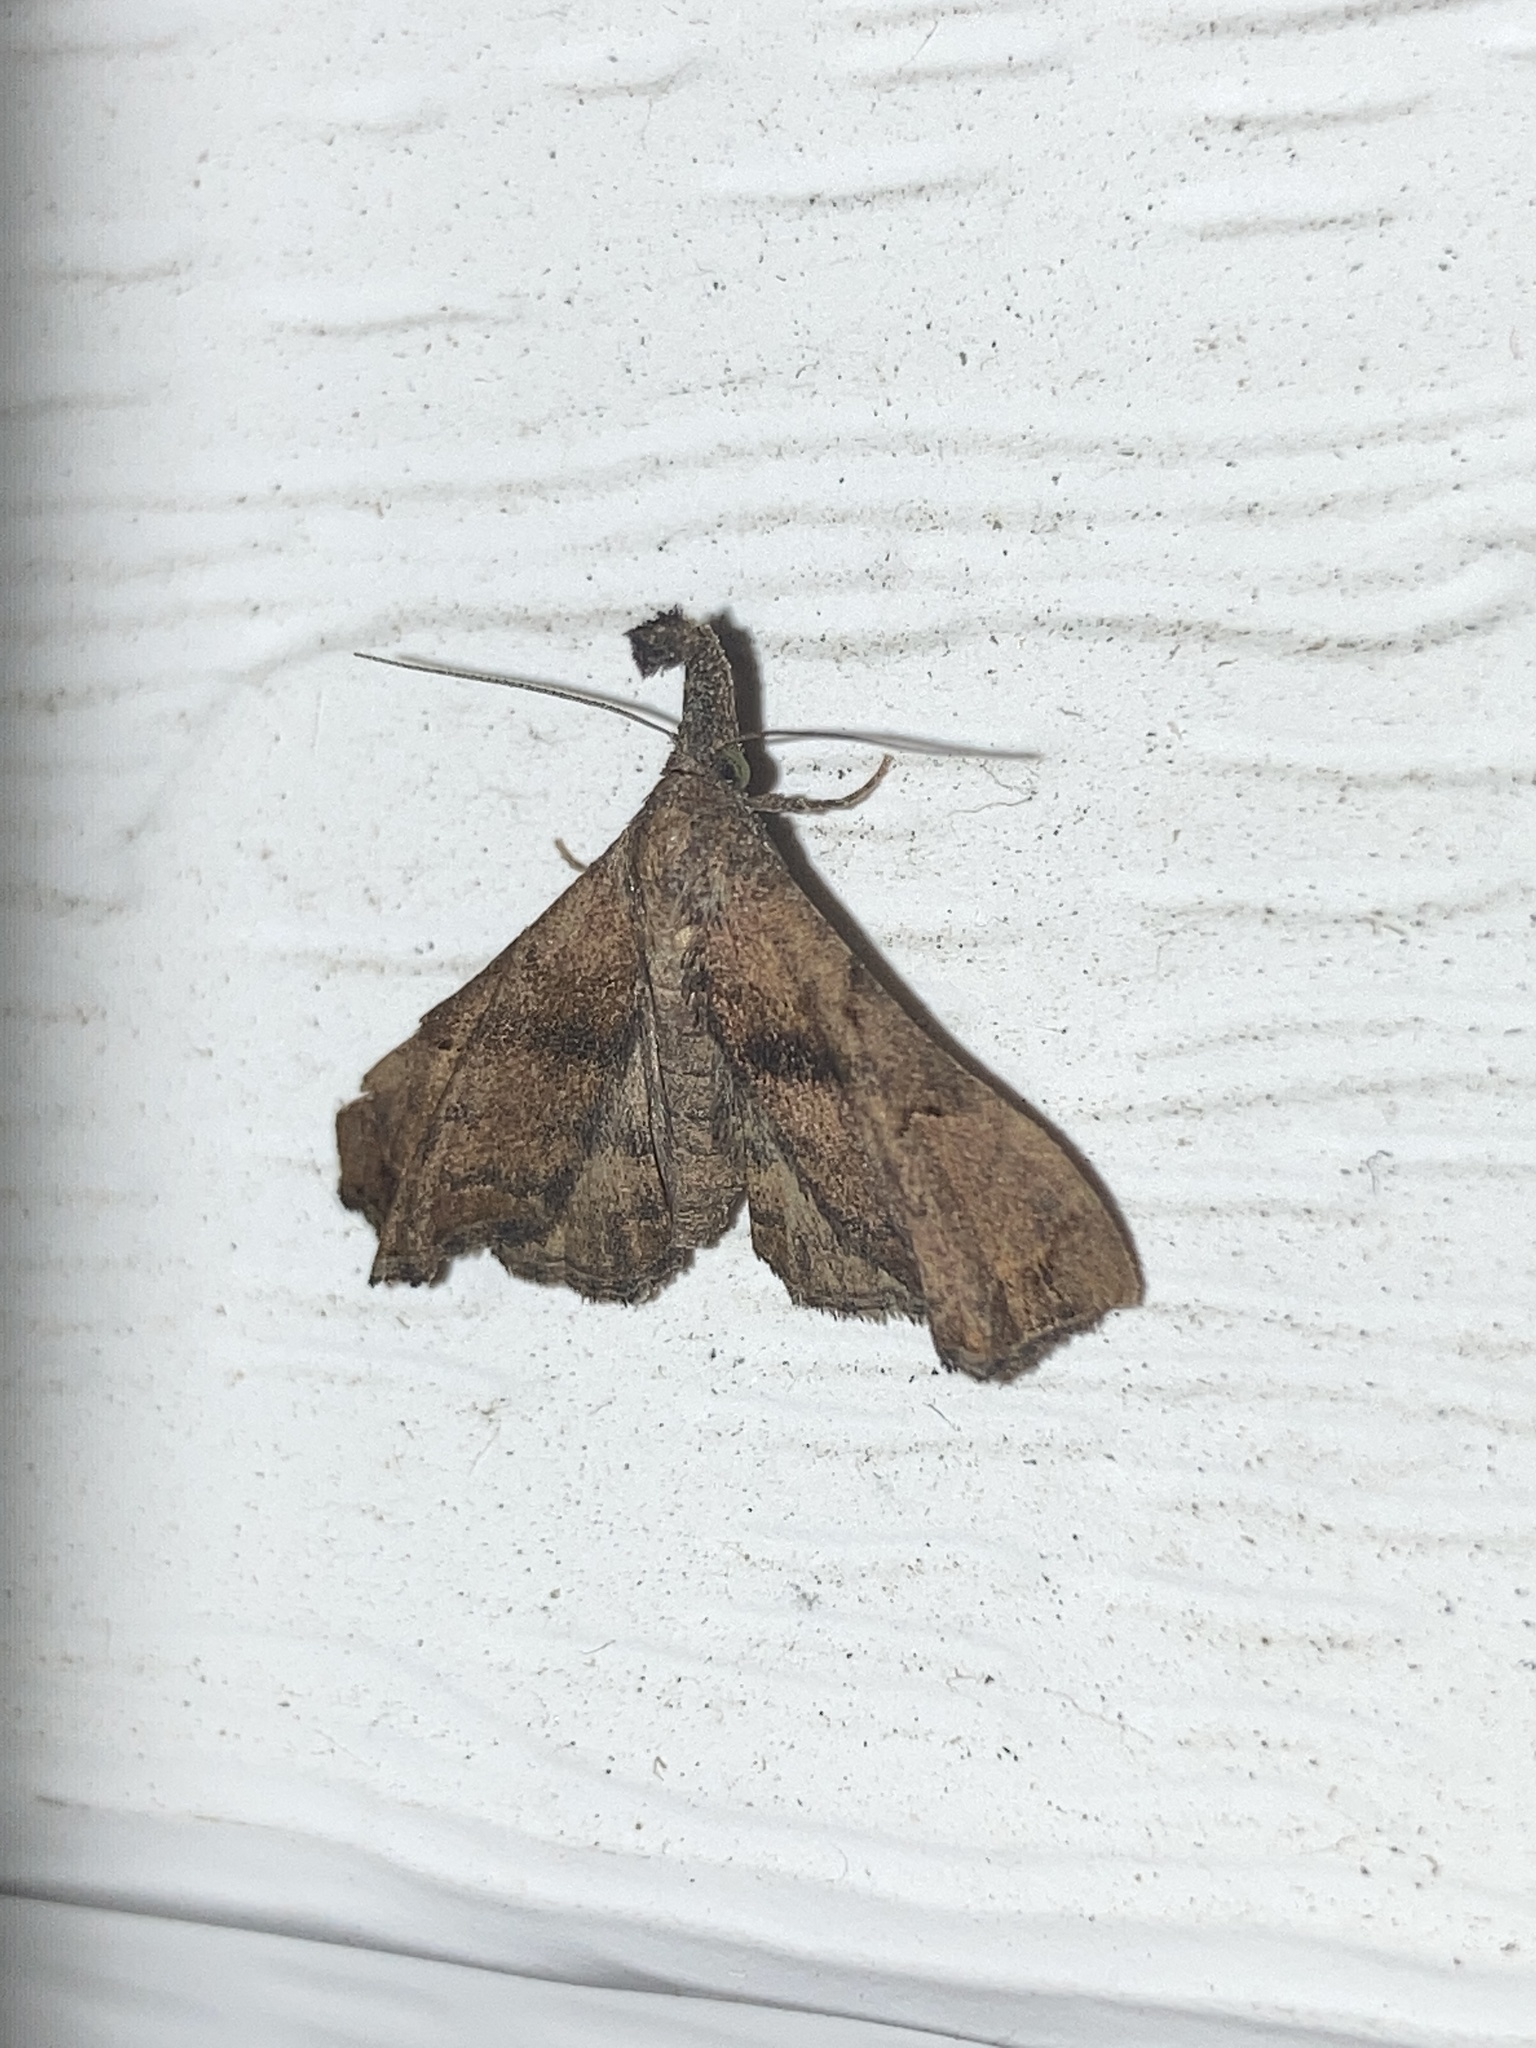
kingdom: Animalia
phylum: Arthropoda
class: Insecta
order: Lepidoptera
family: Erebidae
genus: Palthis
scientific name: Palthis asopialis
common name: Faint-spotted palthis moth
